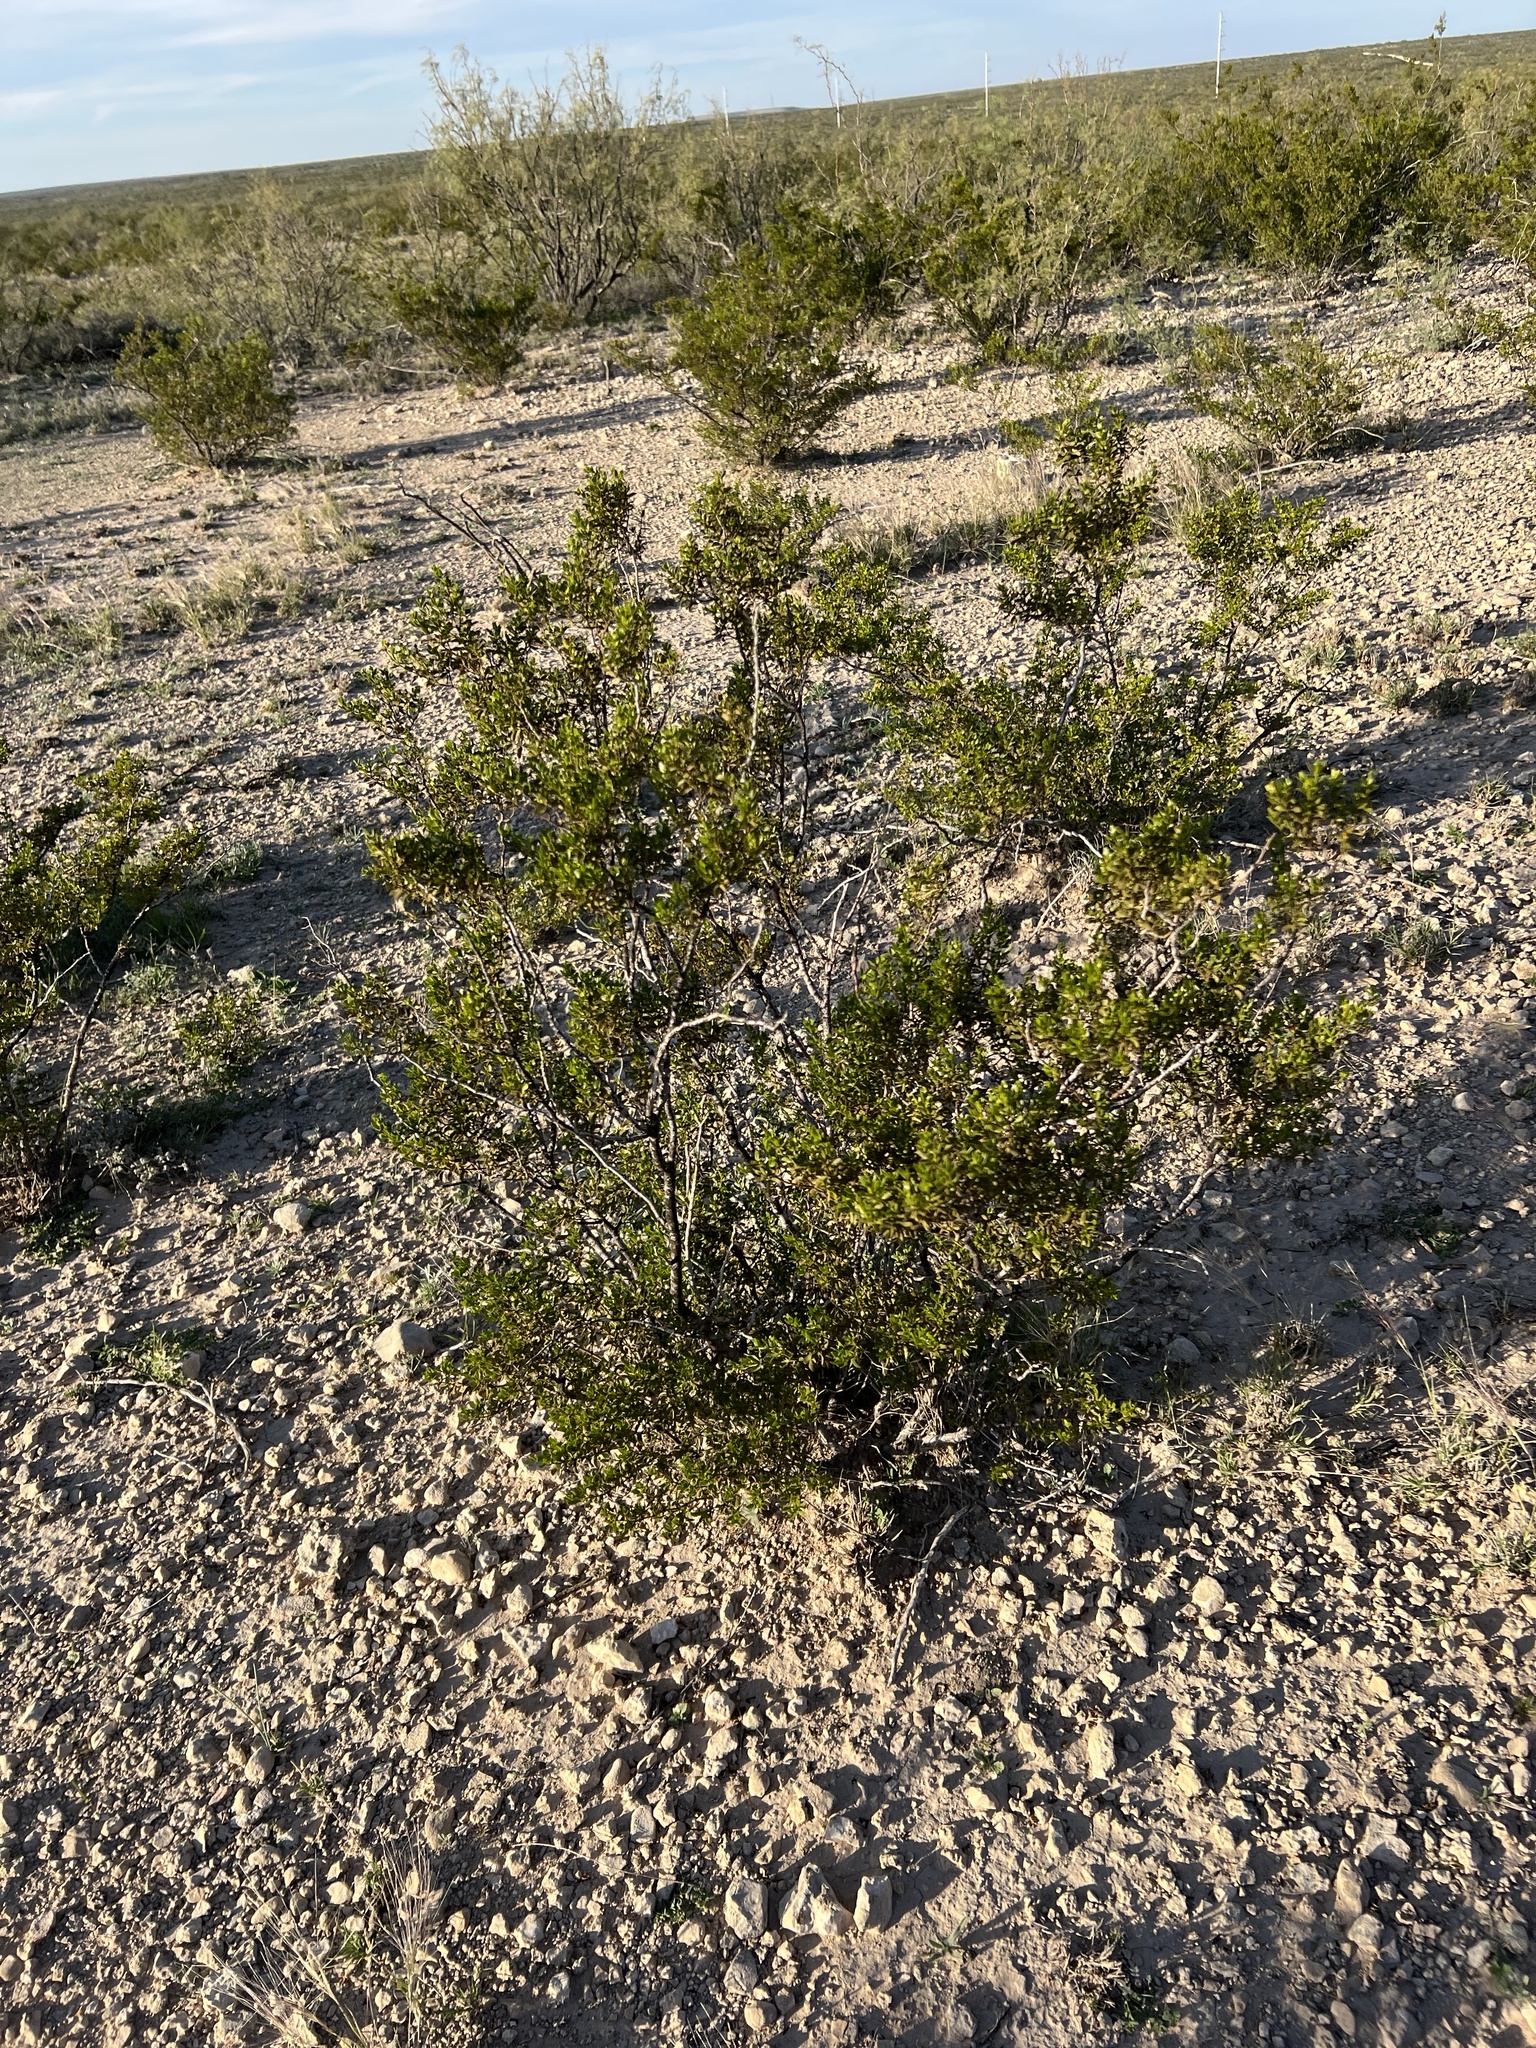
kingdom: Plantae
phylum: Tracheophyta
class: Magnoliopsida
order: Zygophyllales
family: Zygophyllaceae
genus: Larrea
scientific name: Larrea tridentata
